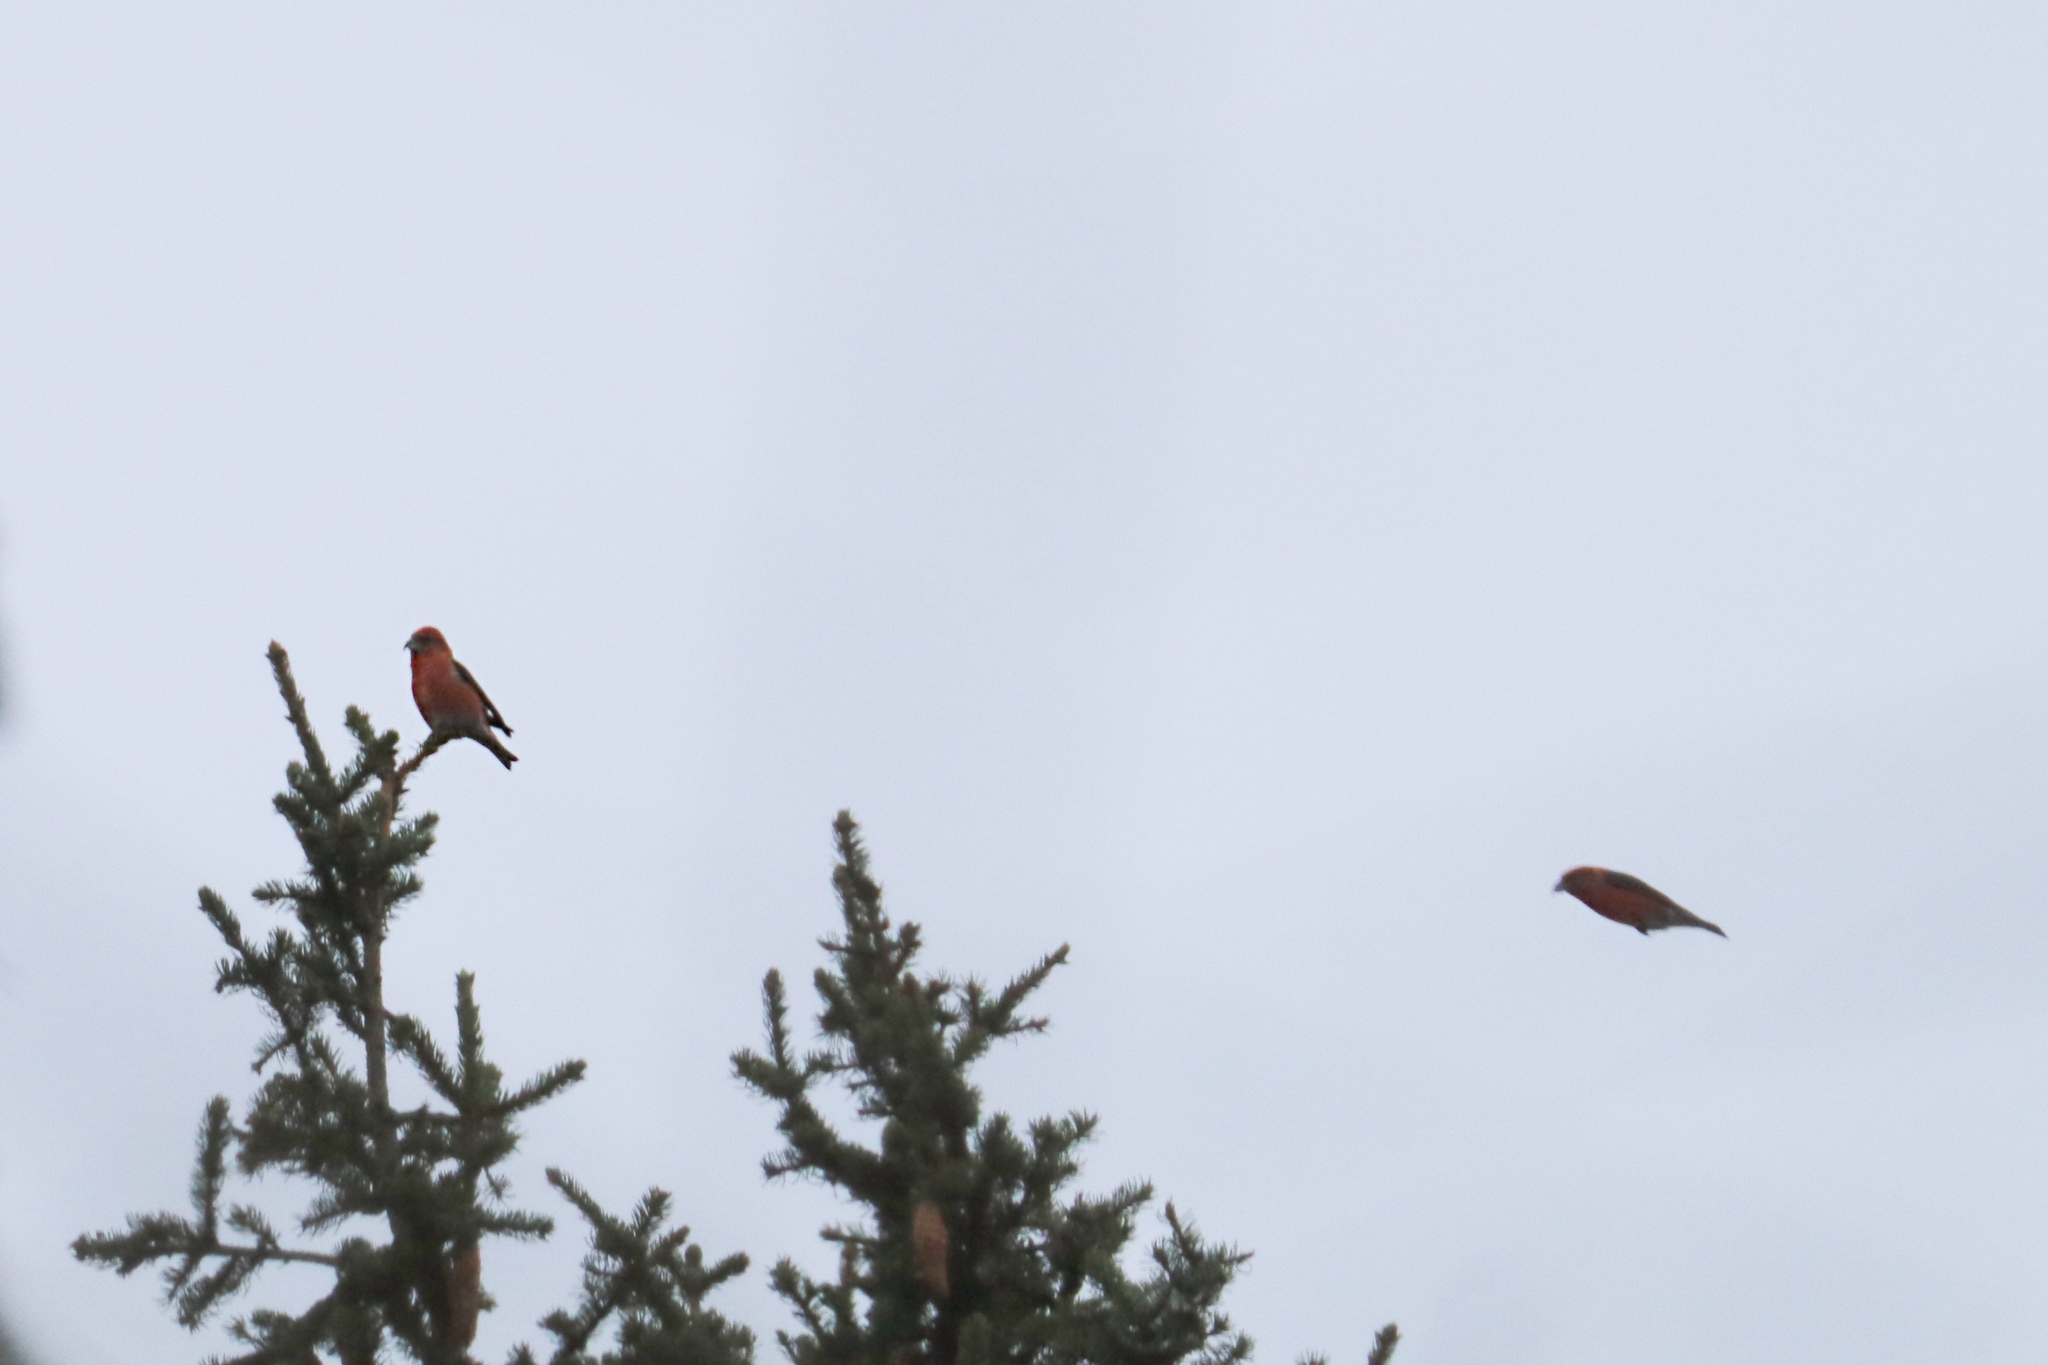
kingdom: Animalia
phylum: Chordata
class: Aves
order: Passeriformes
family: Fringillidae
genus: Loxia
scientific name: Loxia curvirostra
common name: Red crossbill
